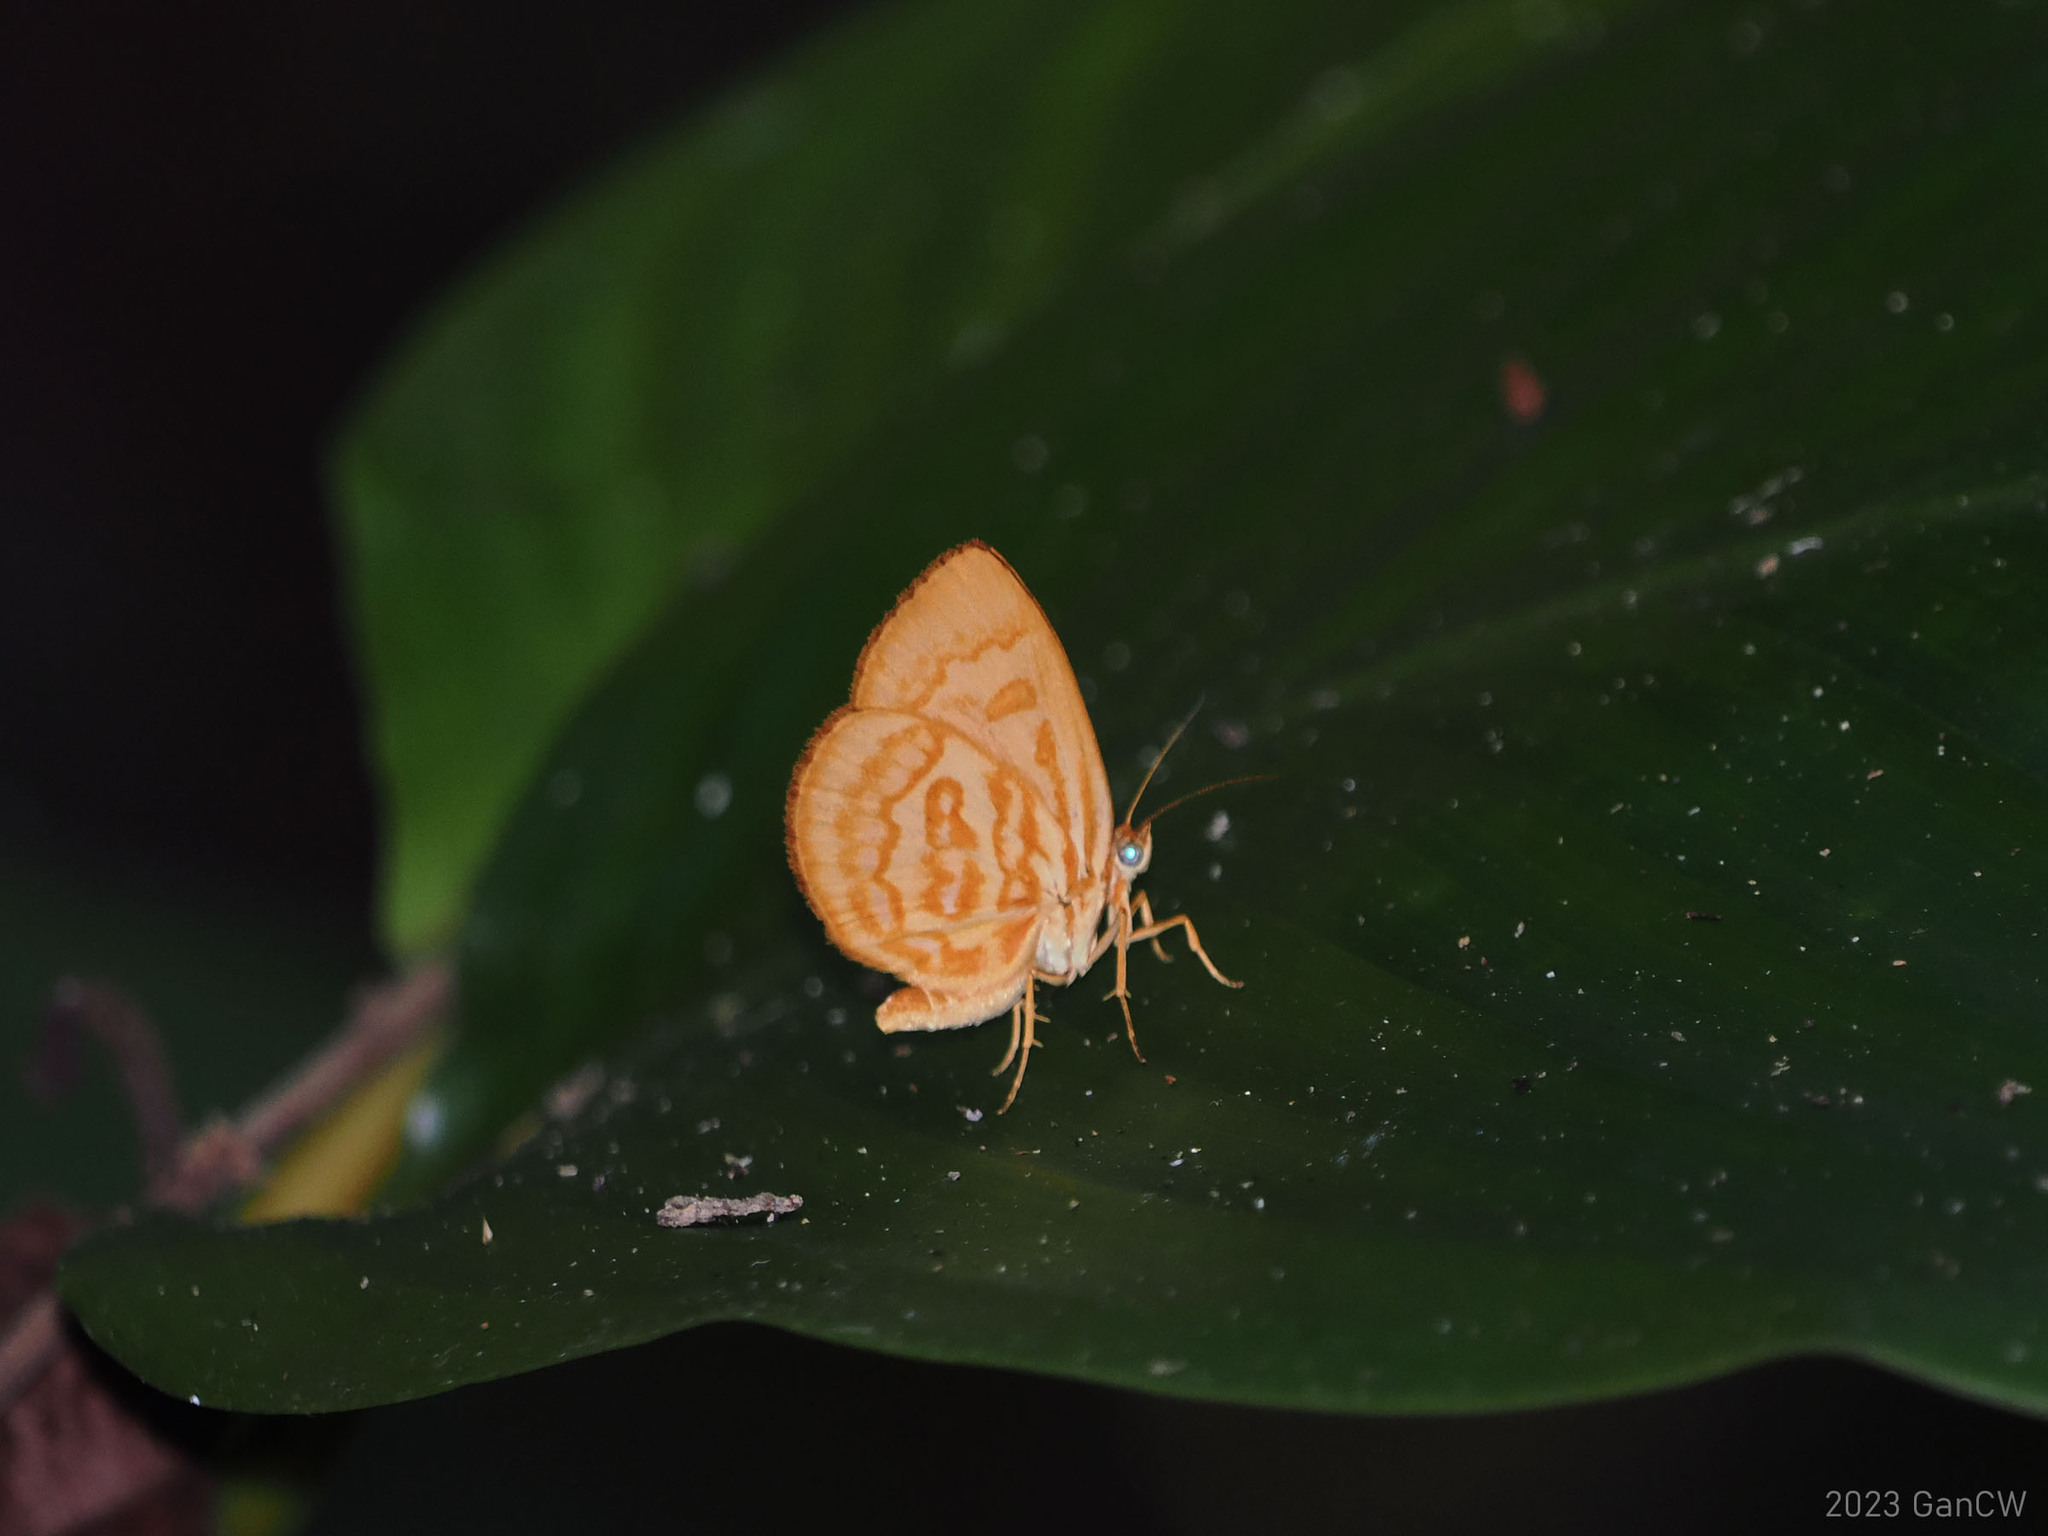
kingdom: Animalia
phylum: Arthropoda
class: Insecta
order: Lepidoptera
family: Callidulidae
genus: Comella
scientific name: Comella laetifica
